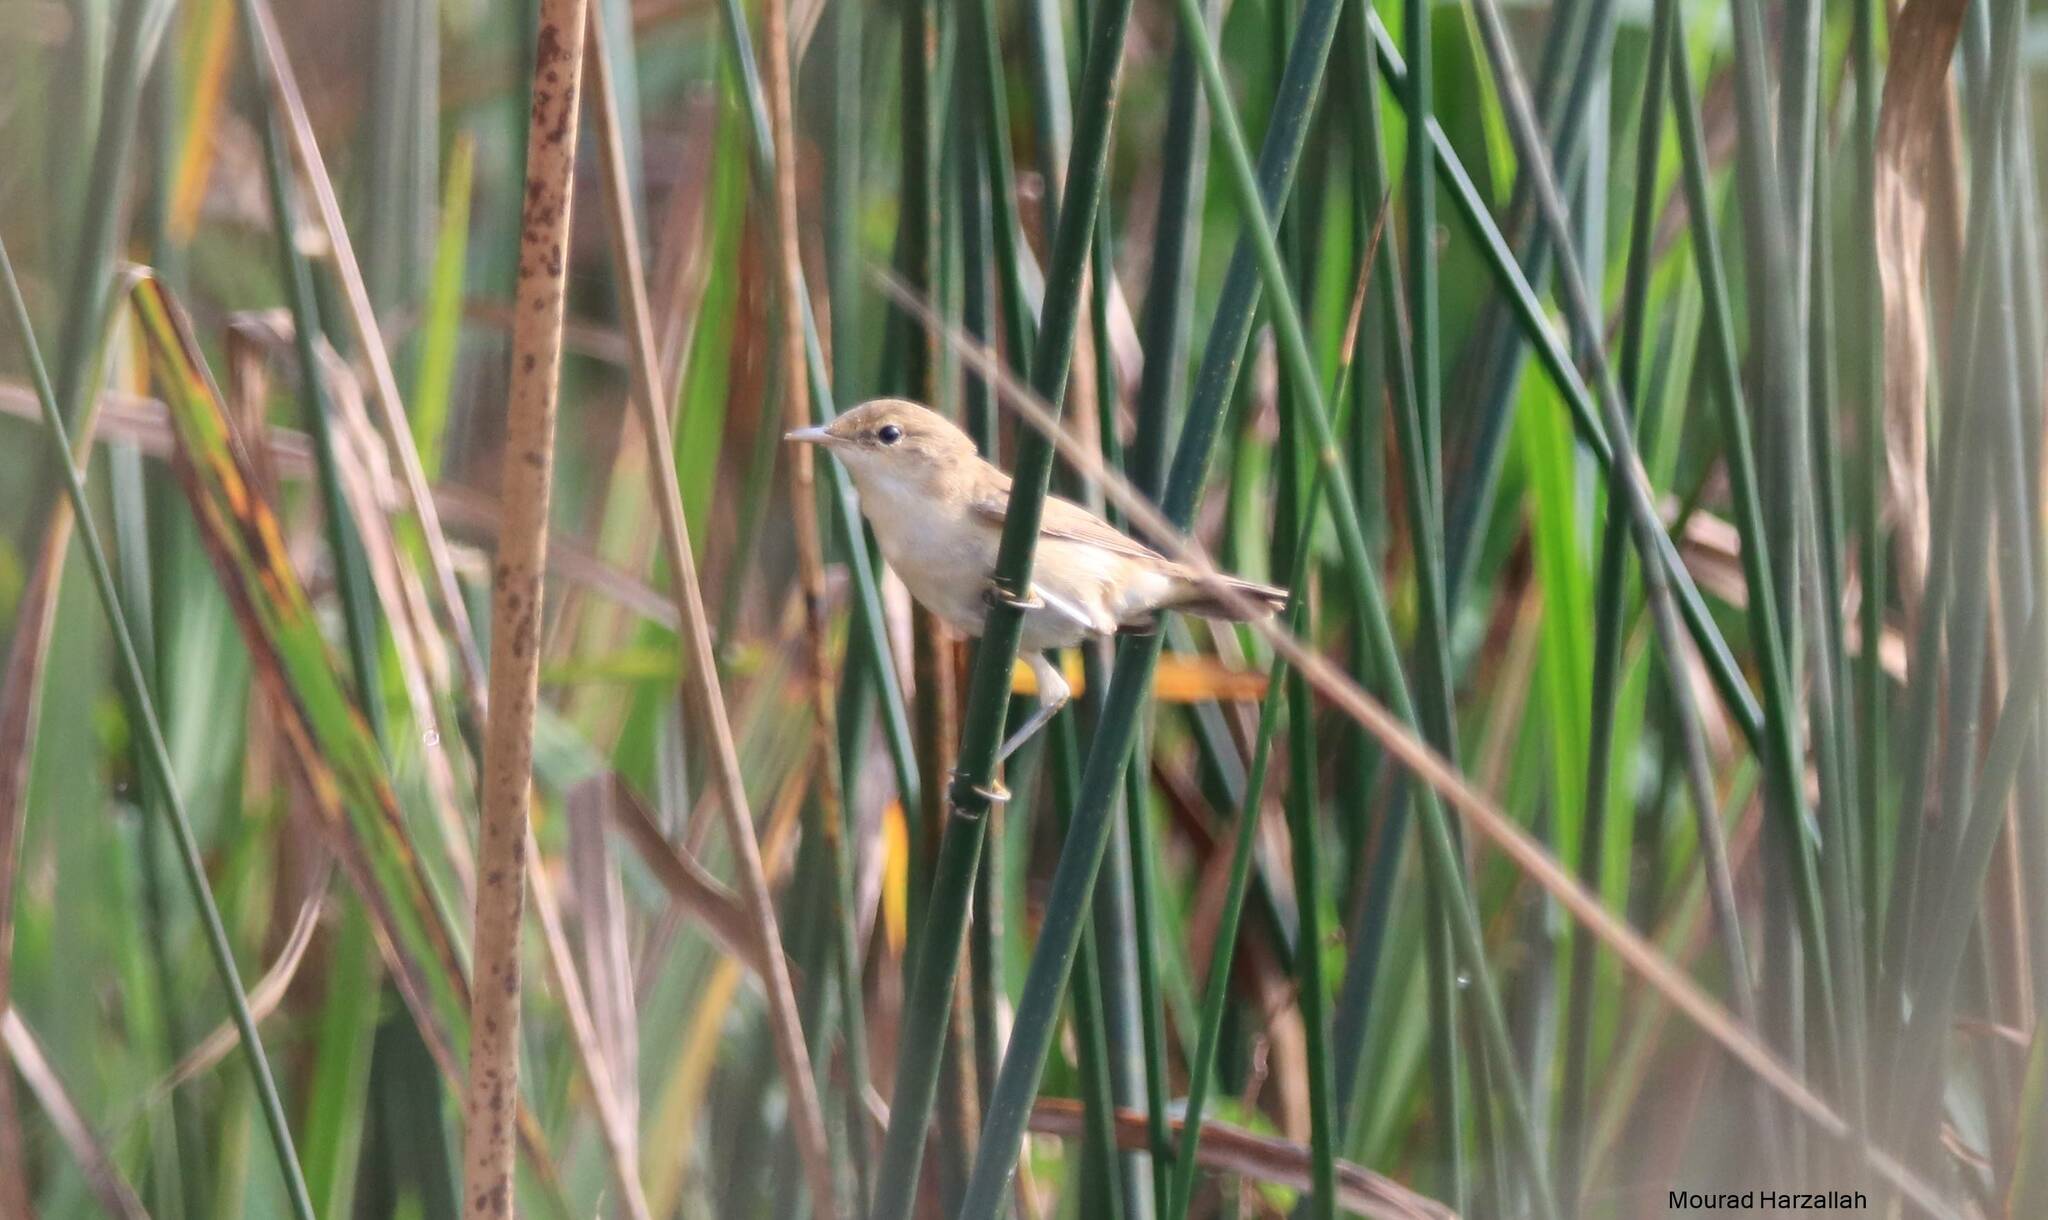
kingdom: Animalia
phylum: Chordata
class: Aves
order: Passeriformes
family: Acrocephalidae
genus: Acrocephalus
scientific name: Acrocephalus scirpaceus
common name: Eurasian reed warbler
